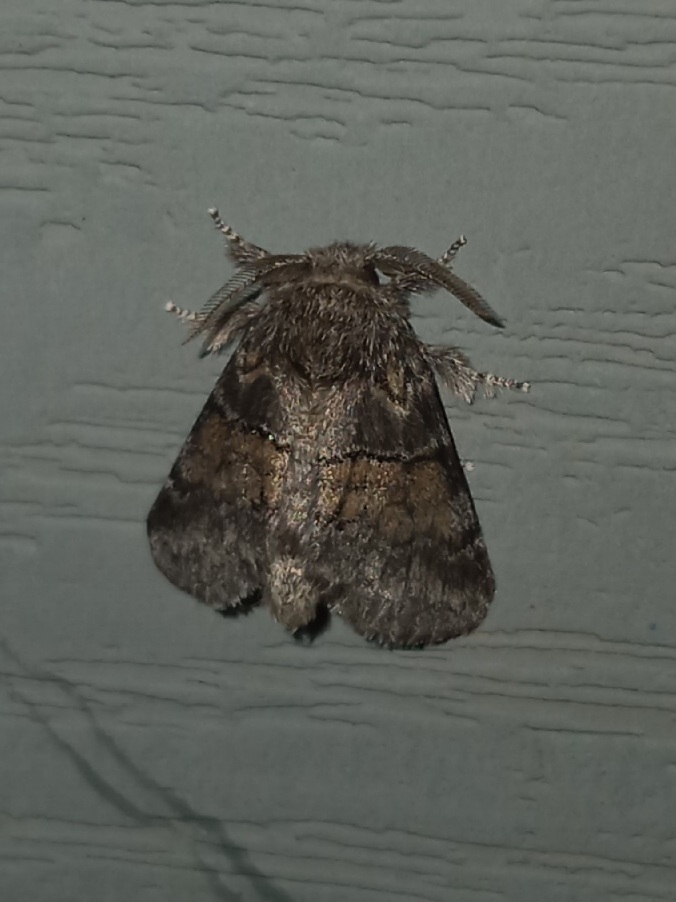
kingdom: Animalia
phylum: Arthropoda
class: Insecta
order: Lepidoptera
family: Notodontidae
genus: Gluphisia
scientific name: Gluphisia septentrionis
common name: Common gluphisia
